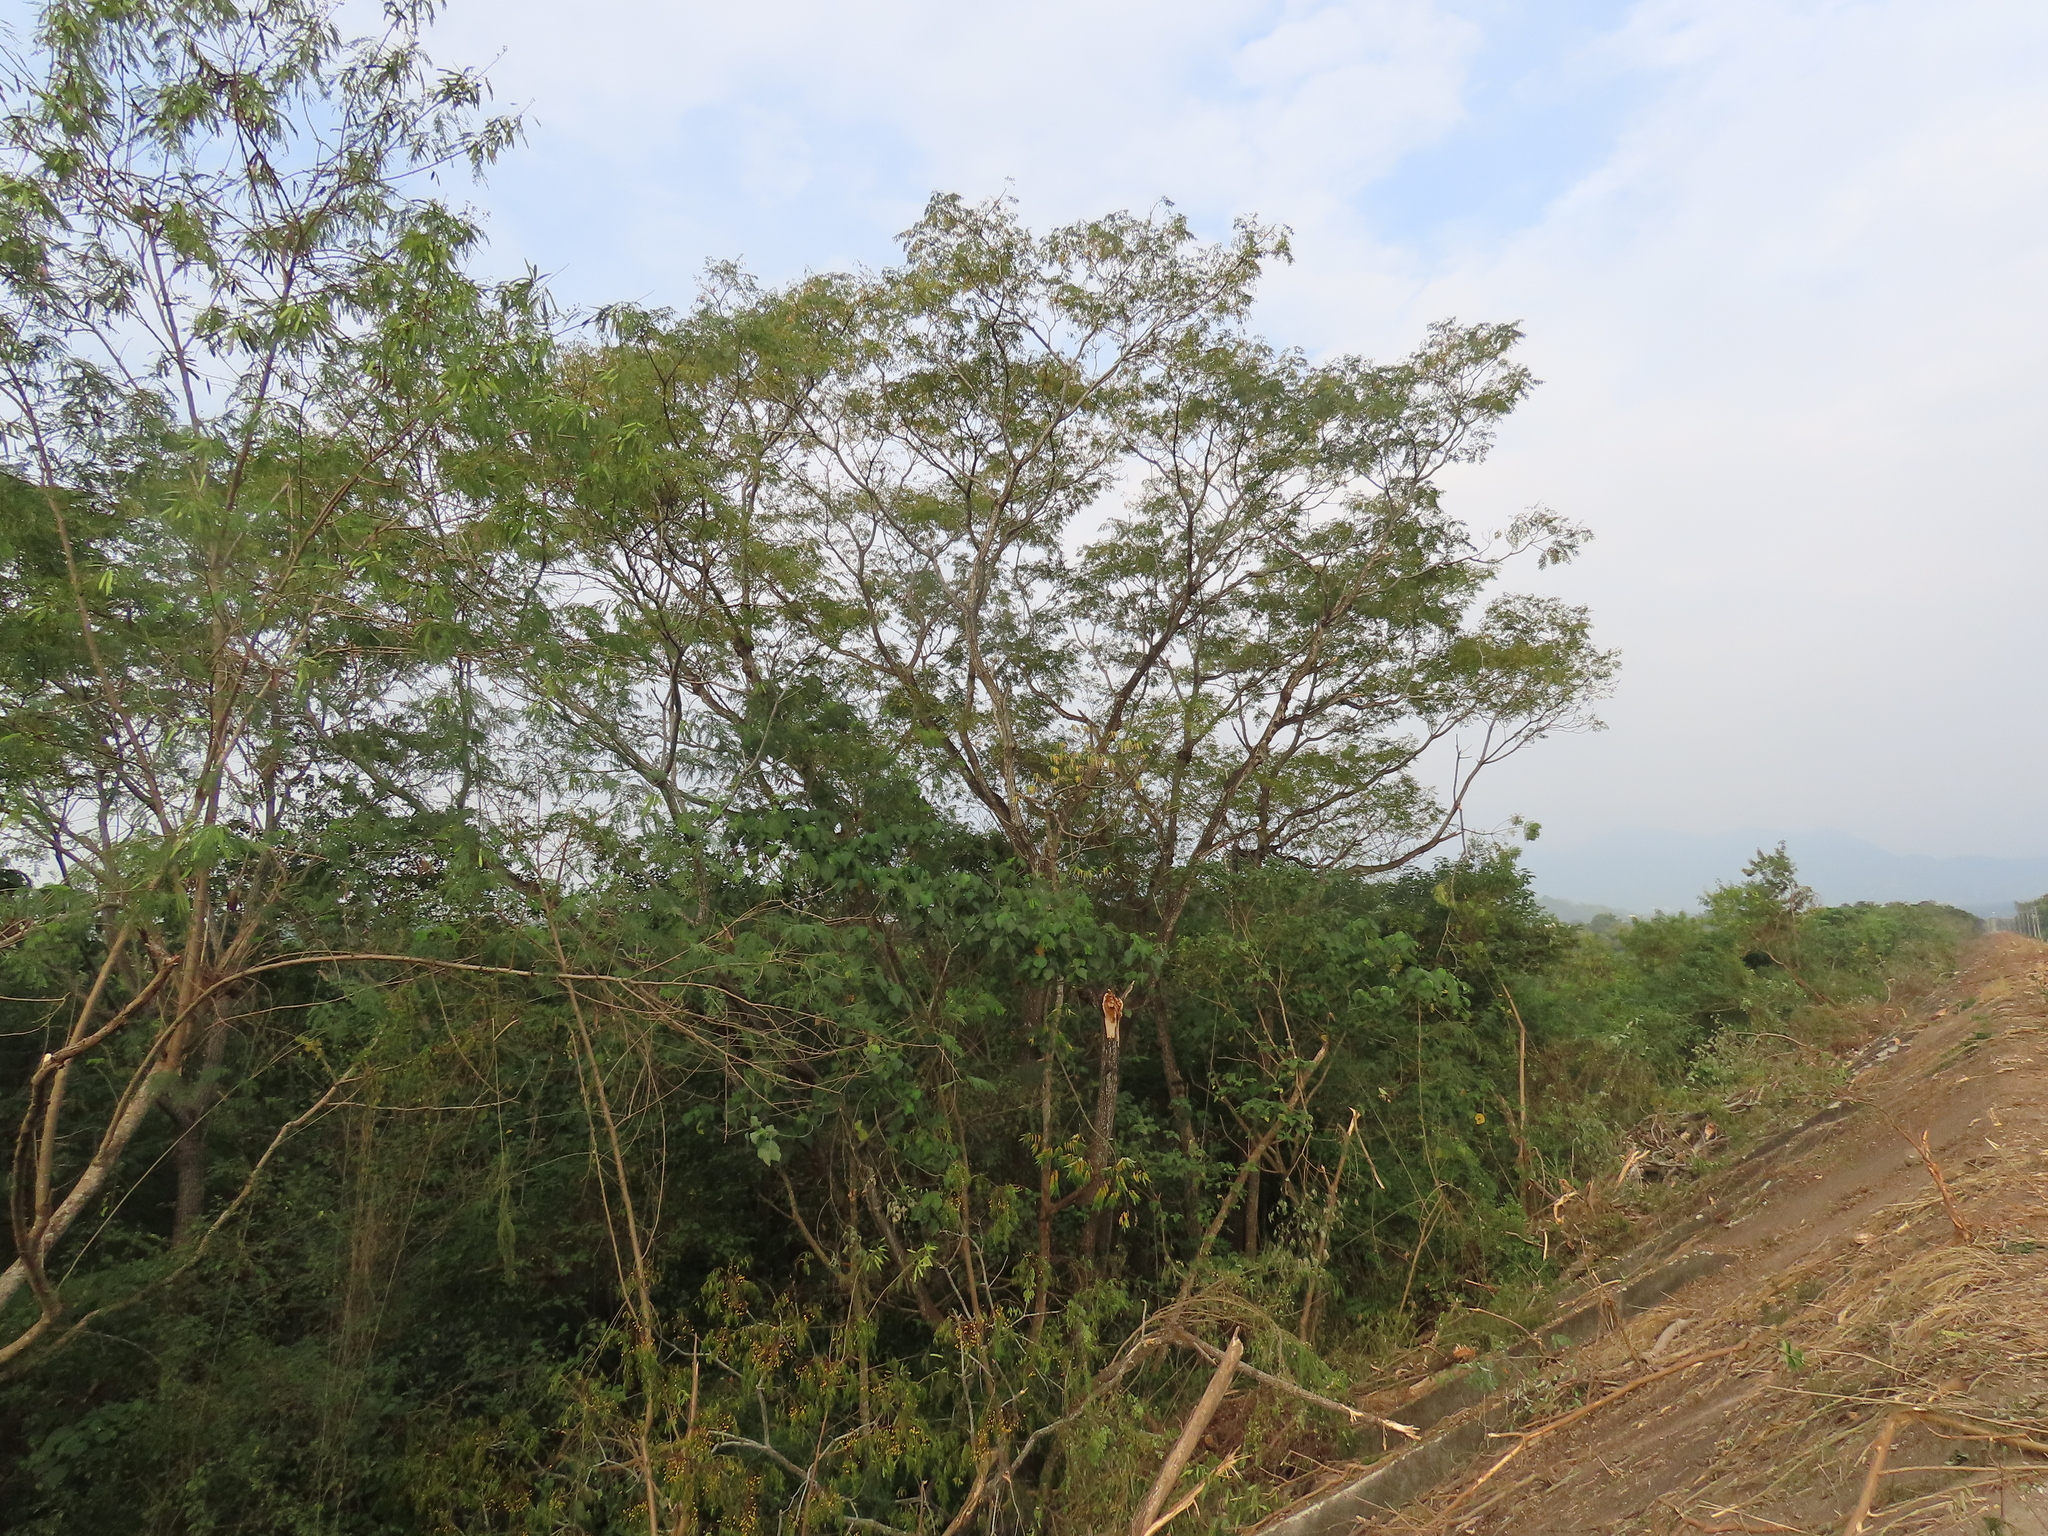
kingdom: Plantae
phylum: Tracheophyta
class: Magnoliopsida
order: Sapindales
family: Meliaceae
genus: Melia
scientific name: Melia azedarach
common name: Chinaberrytree
